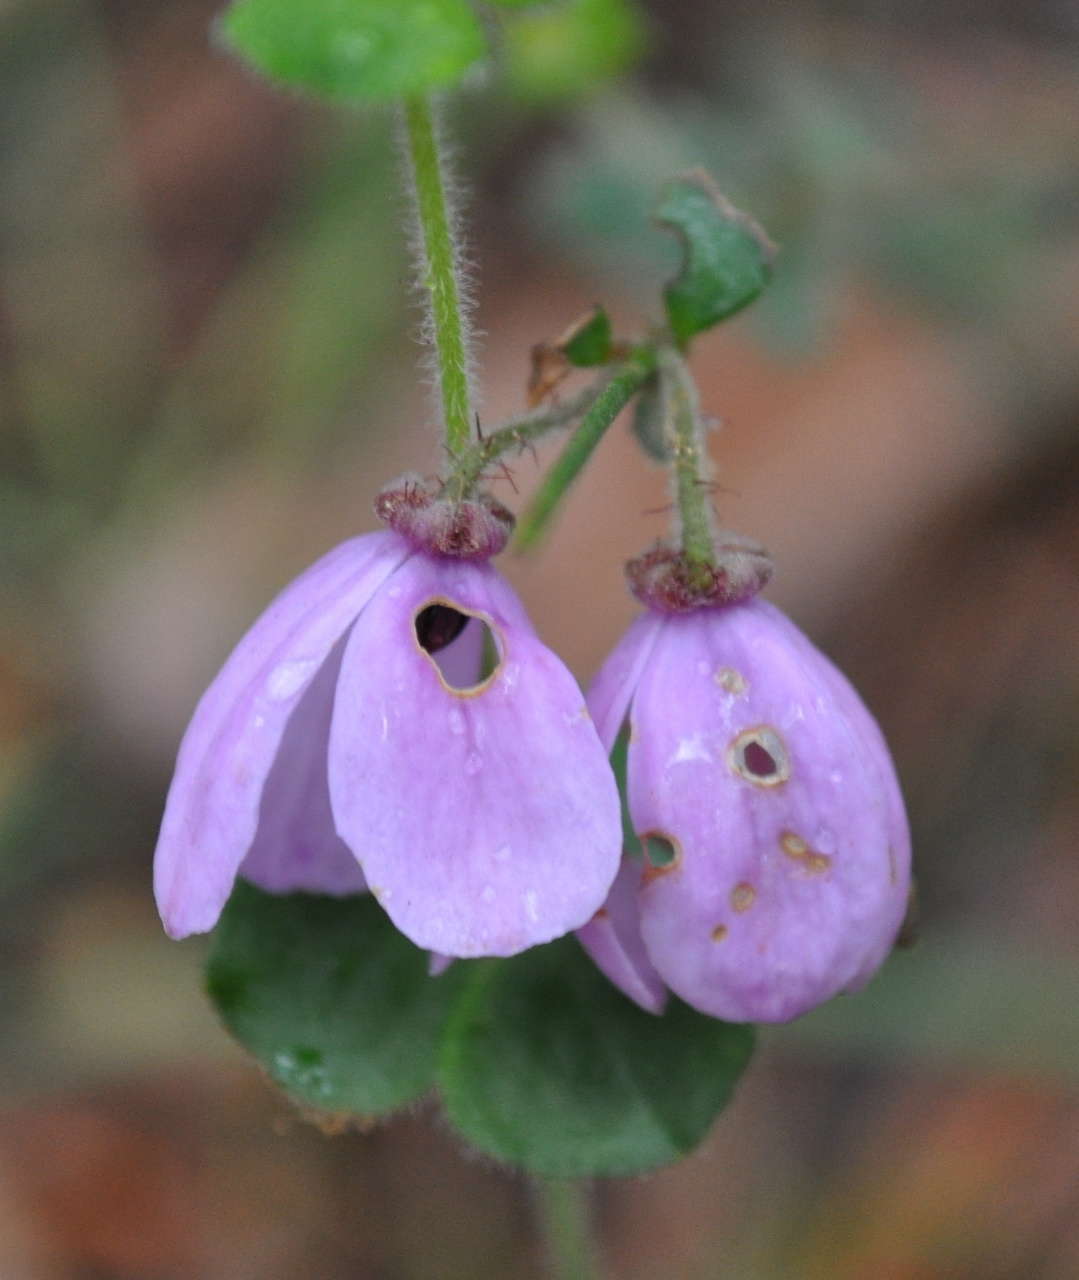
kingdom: Plantae
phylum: Tracheophyta
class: Magnoliopsida
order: Oxalidales
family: Elaeocarpaceae
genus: Tetratheca
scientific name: Tetratheca ciliata
